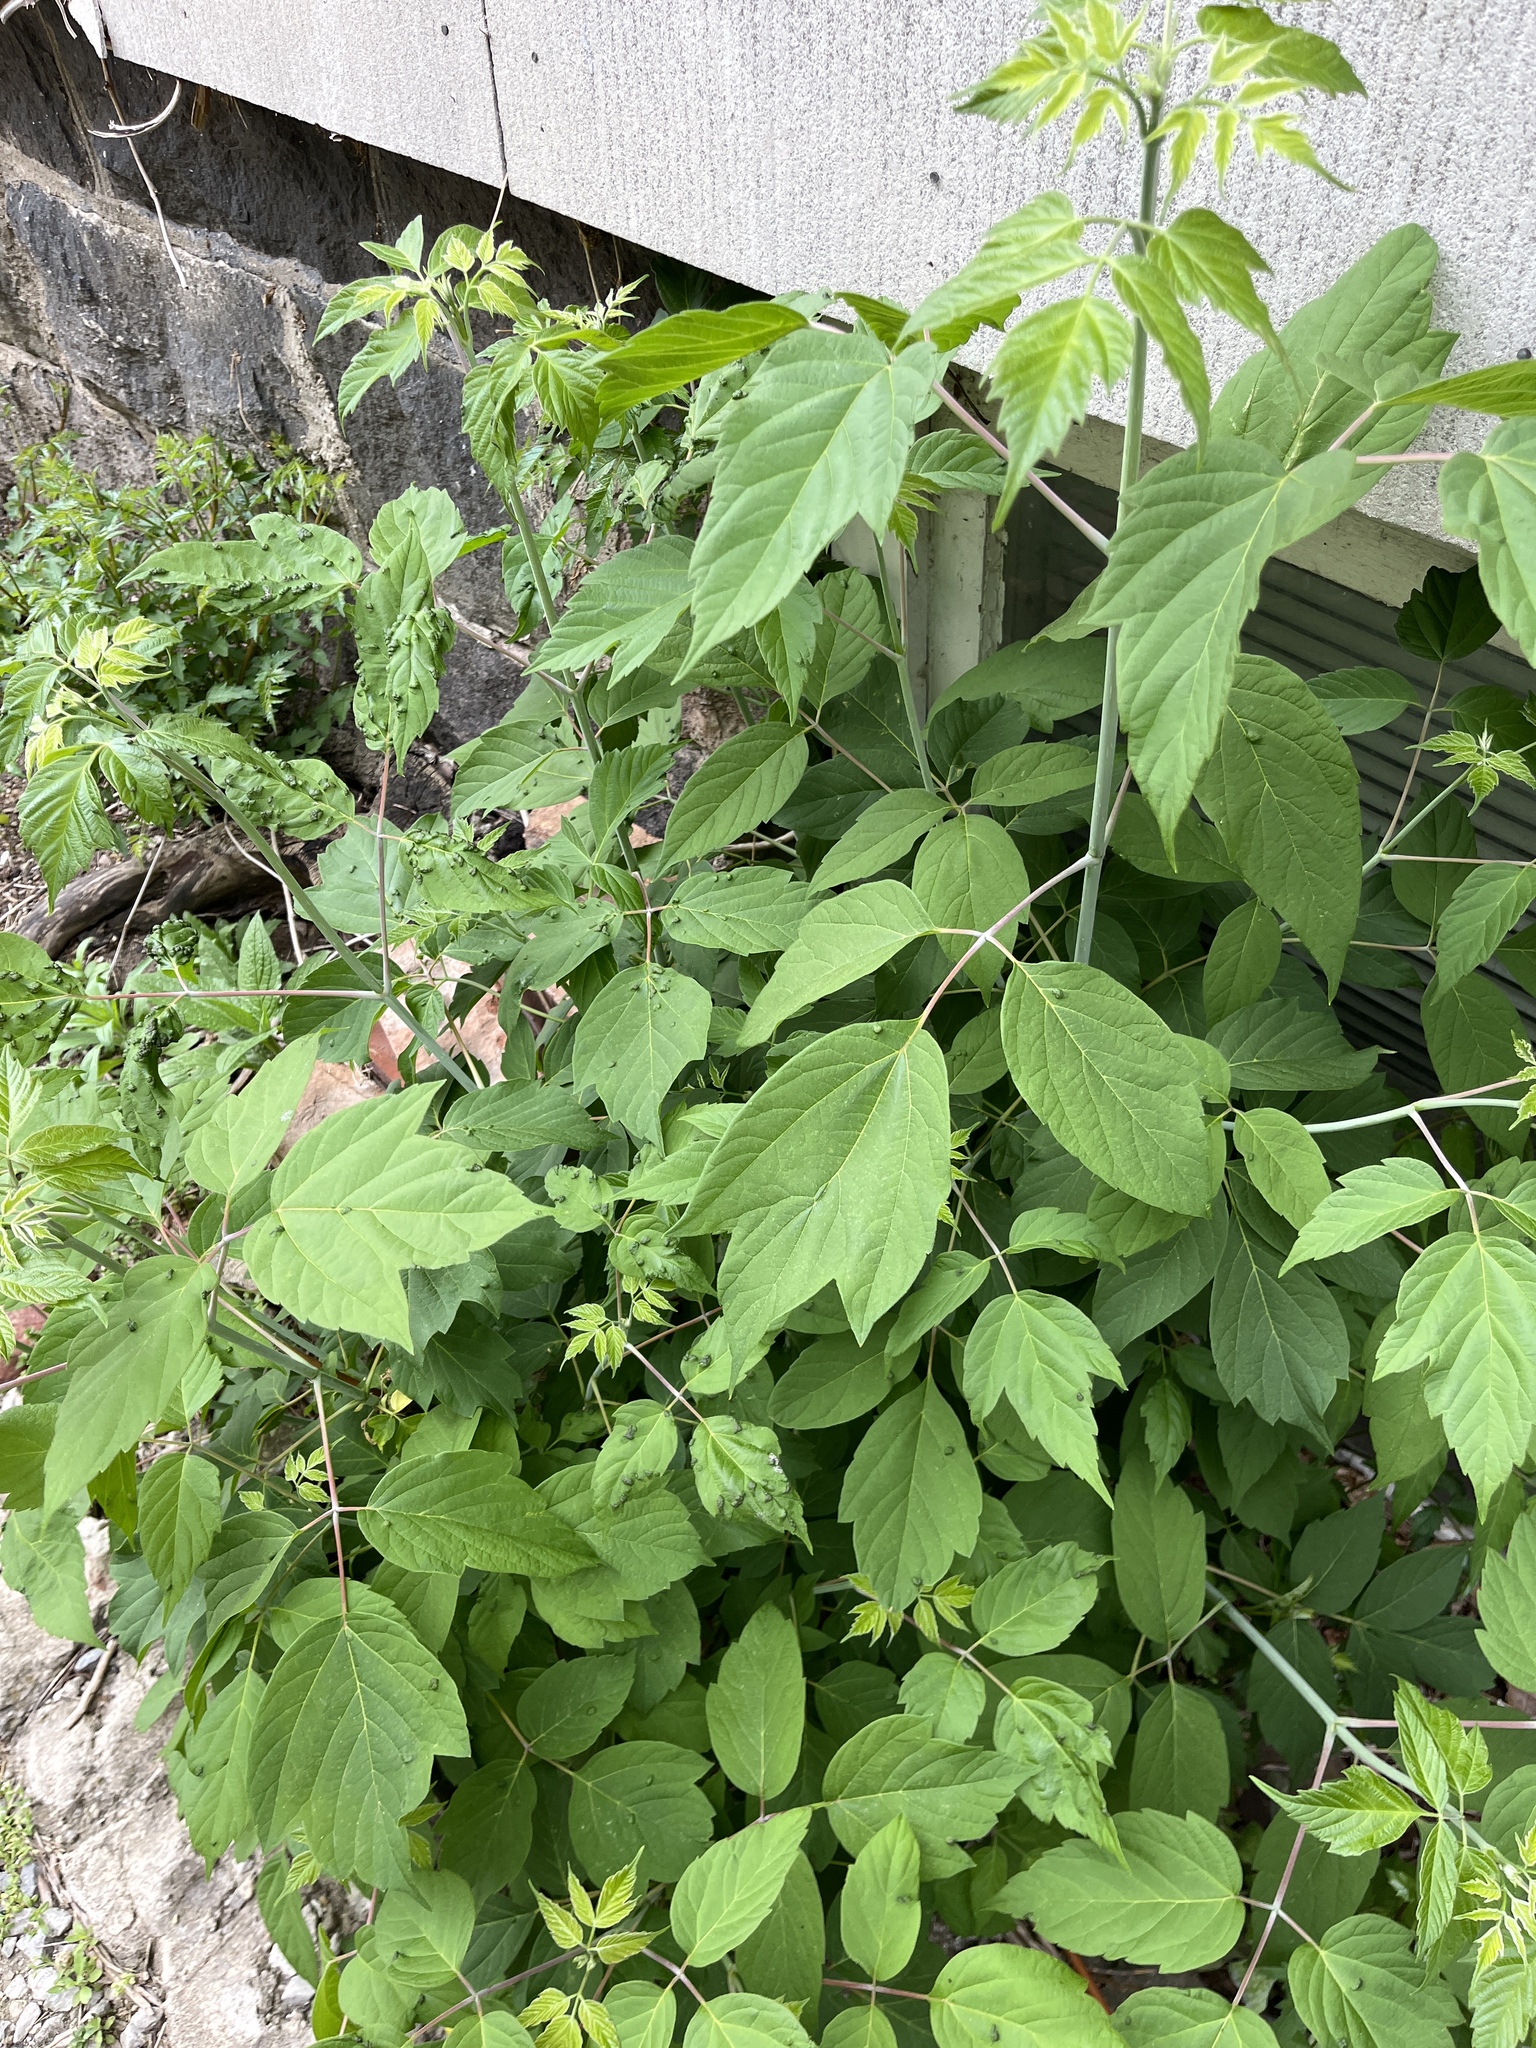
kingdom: Plantae
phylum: Tracheophyta
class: Magnoliopsida
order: Sapindales
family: Sapindaceae
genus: Acer
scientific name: Acer negundo
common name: Ashleaf maple
